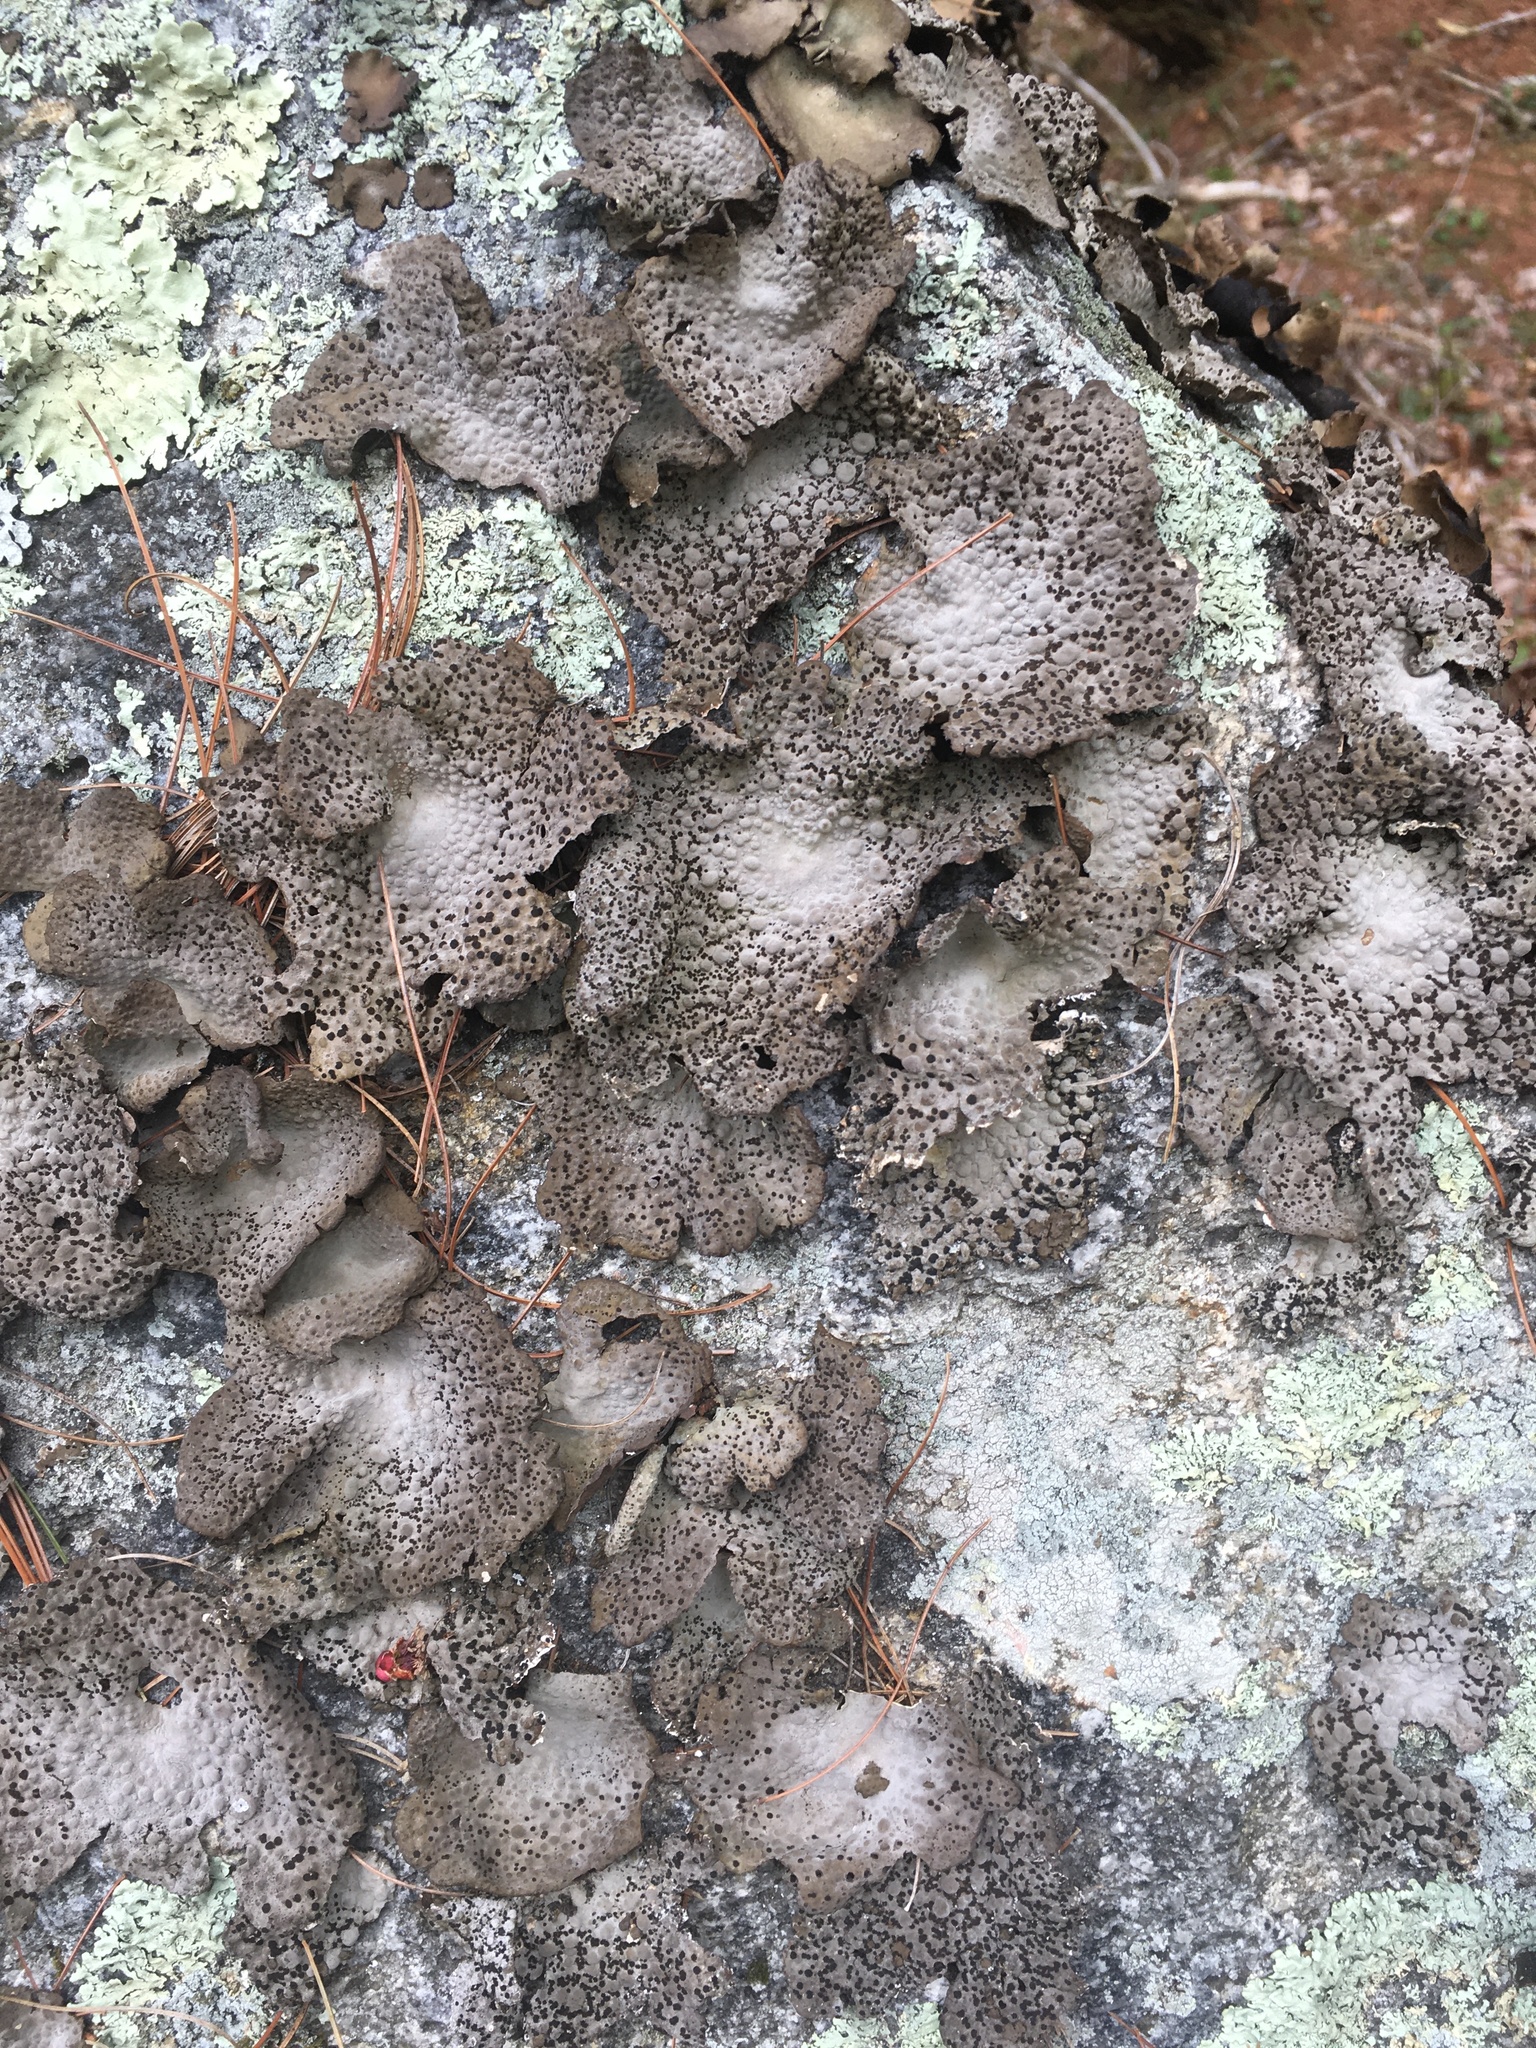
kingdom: Fungi
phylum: Ascomycota
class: Lecanoromycetes
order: Umbilicariales
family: Umbilicariaceae
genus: Lasallia
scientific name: Lasallia papulosa
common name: Common toadskin lichen
